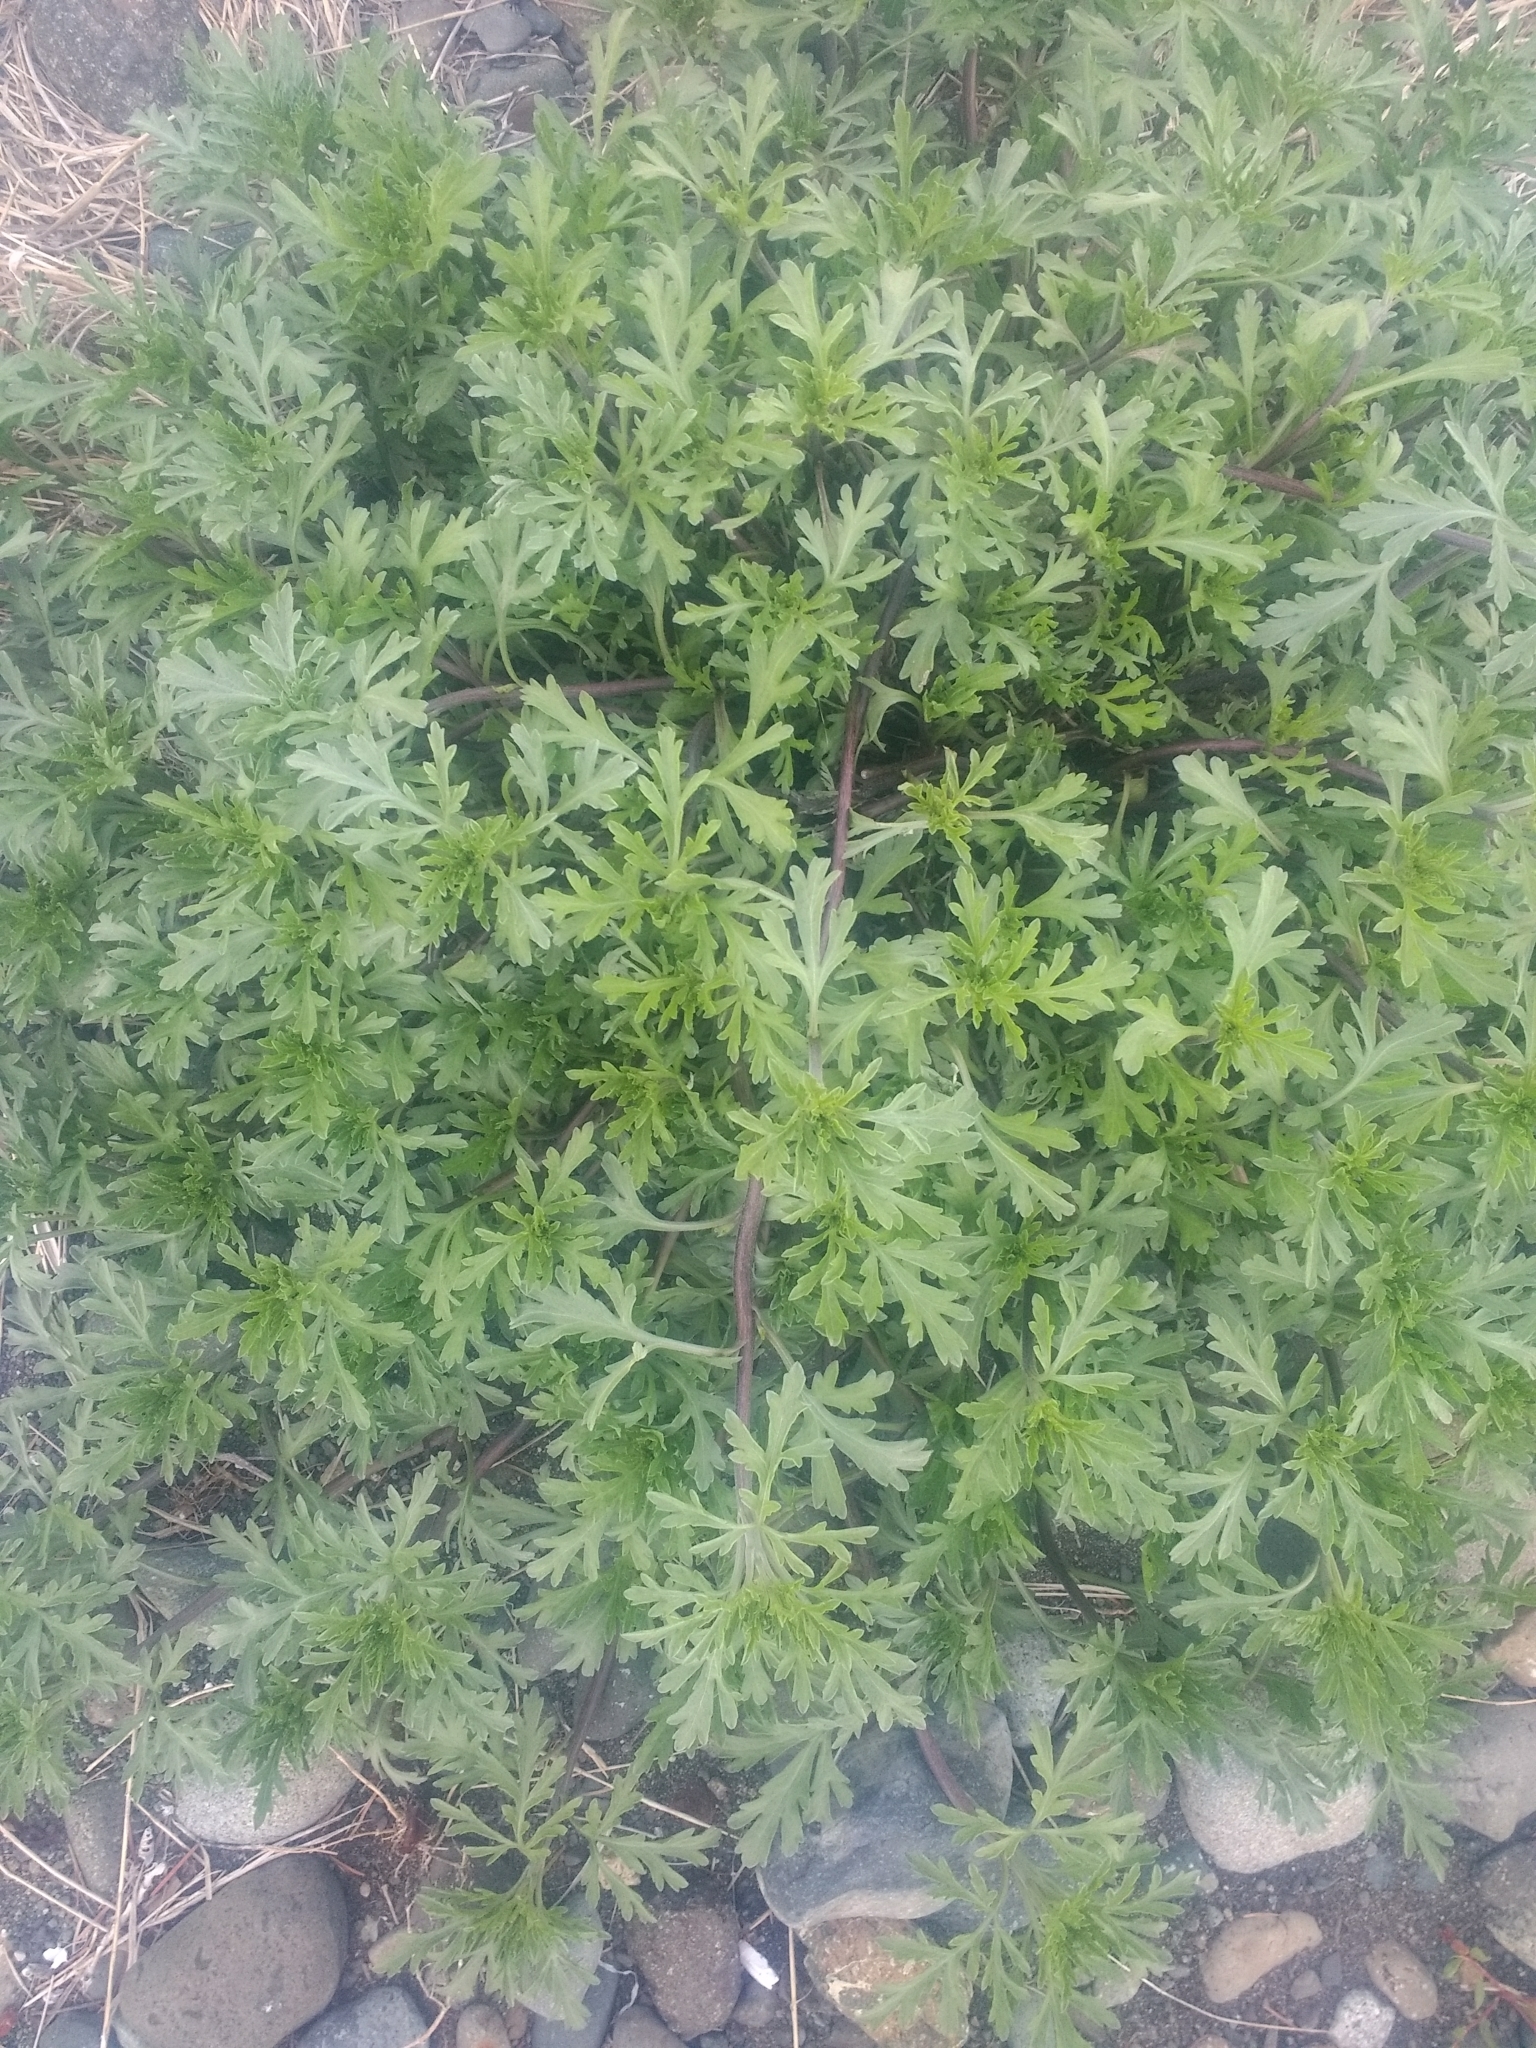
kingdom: Plantae
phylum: Tracheophyta
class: Magnoliopsida
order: Asterales
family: Asteraceae
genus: Ambrosia
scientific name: Ambrosia chamissonis
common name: Beachbur
